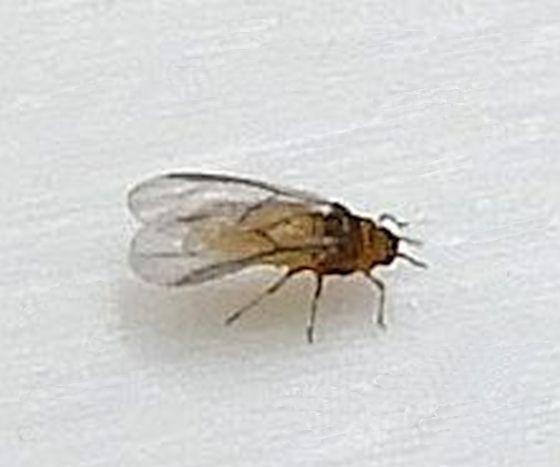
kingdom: Animalia
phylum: Arthropoda
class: Insecta
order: Hemiptera
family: Phylloxeridae
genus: Phylloxera
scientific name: Phylloxera
